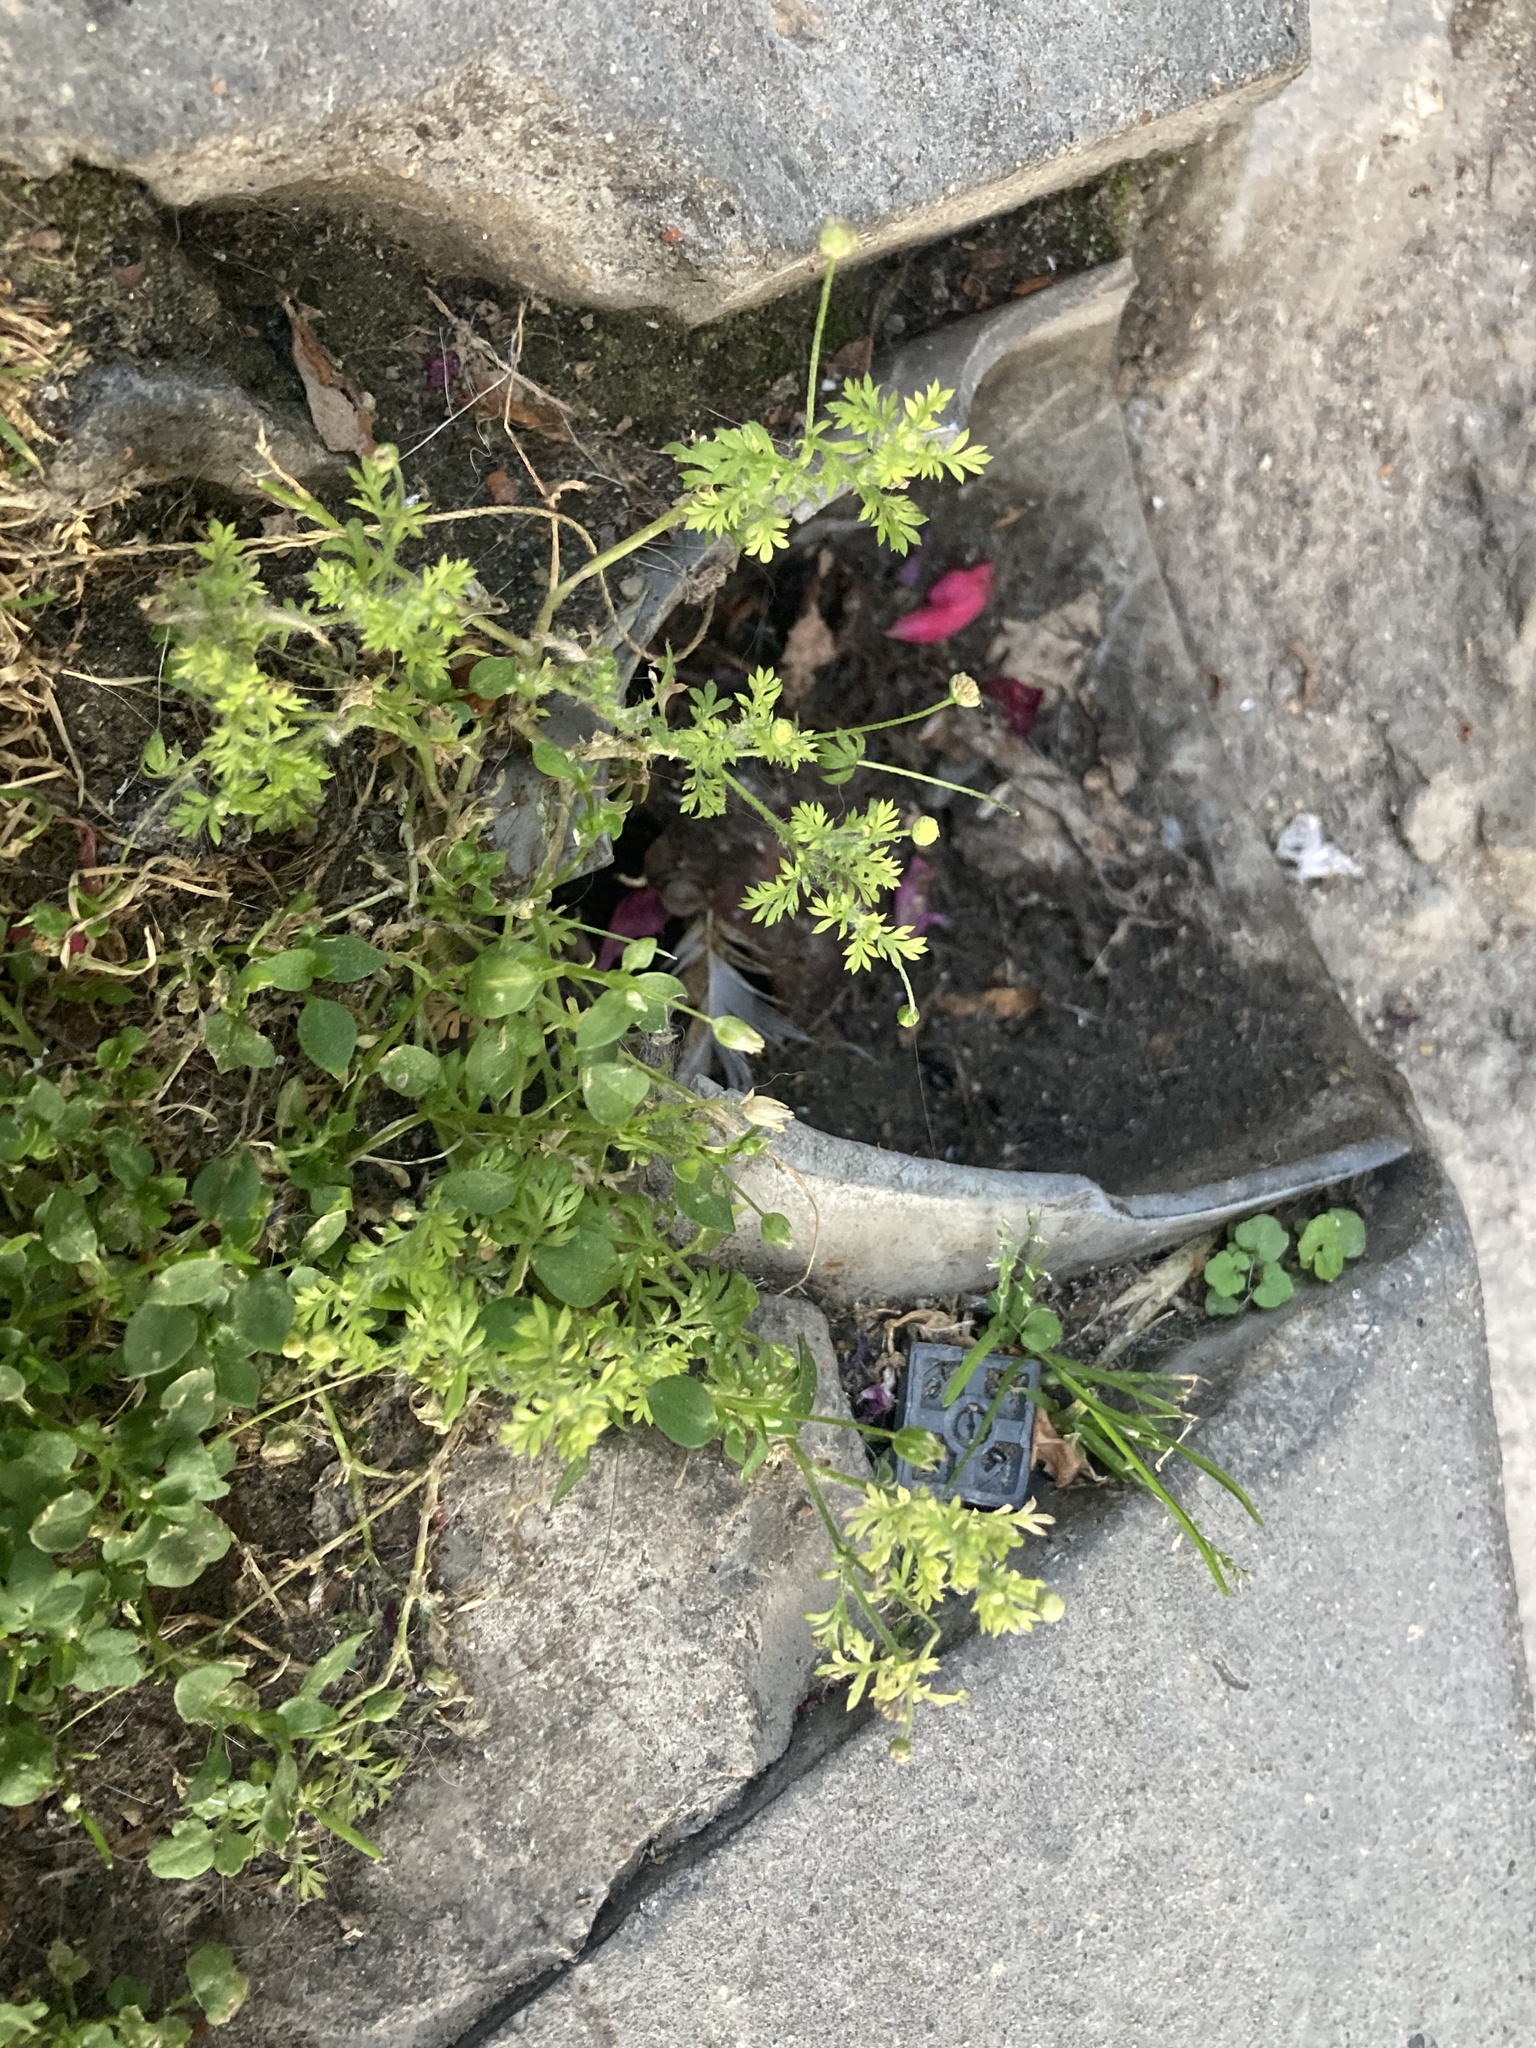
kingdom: Plantae
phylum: Tracheophyta
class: Magnoliopsida
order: Asterales
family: Asteraceae
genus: Cotula
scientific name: Cotula australis
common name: Australian waterbuttons
